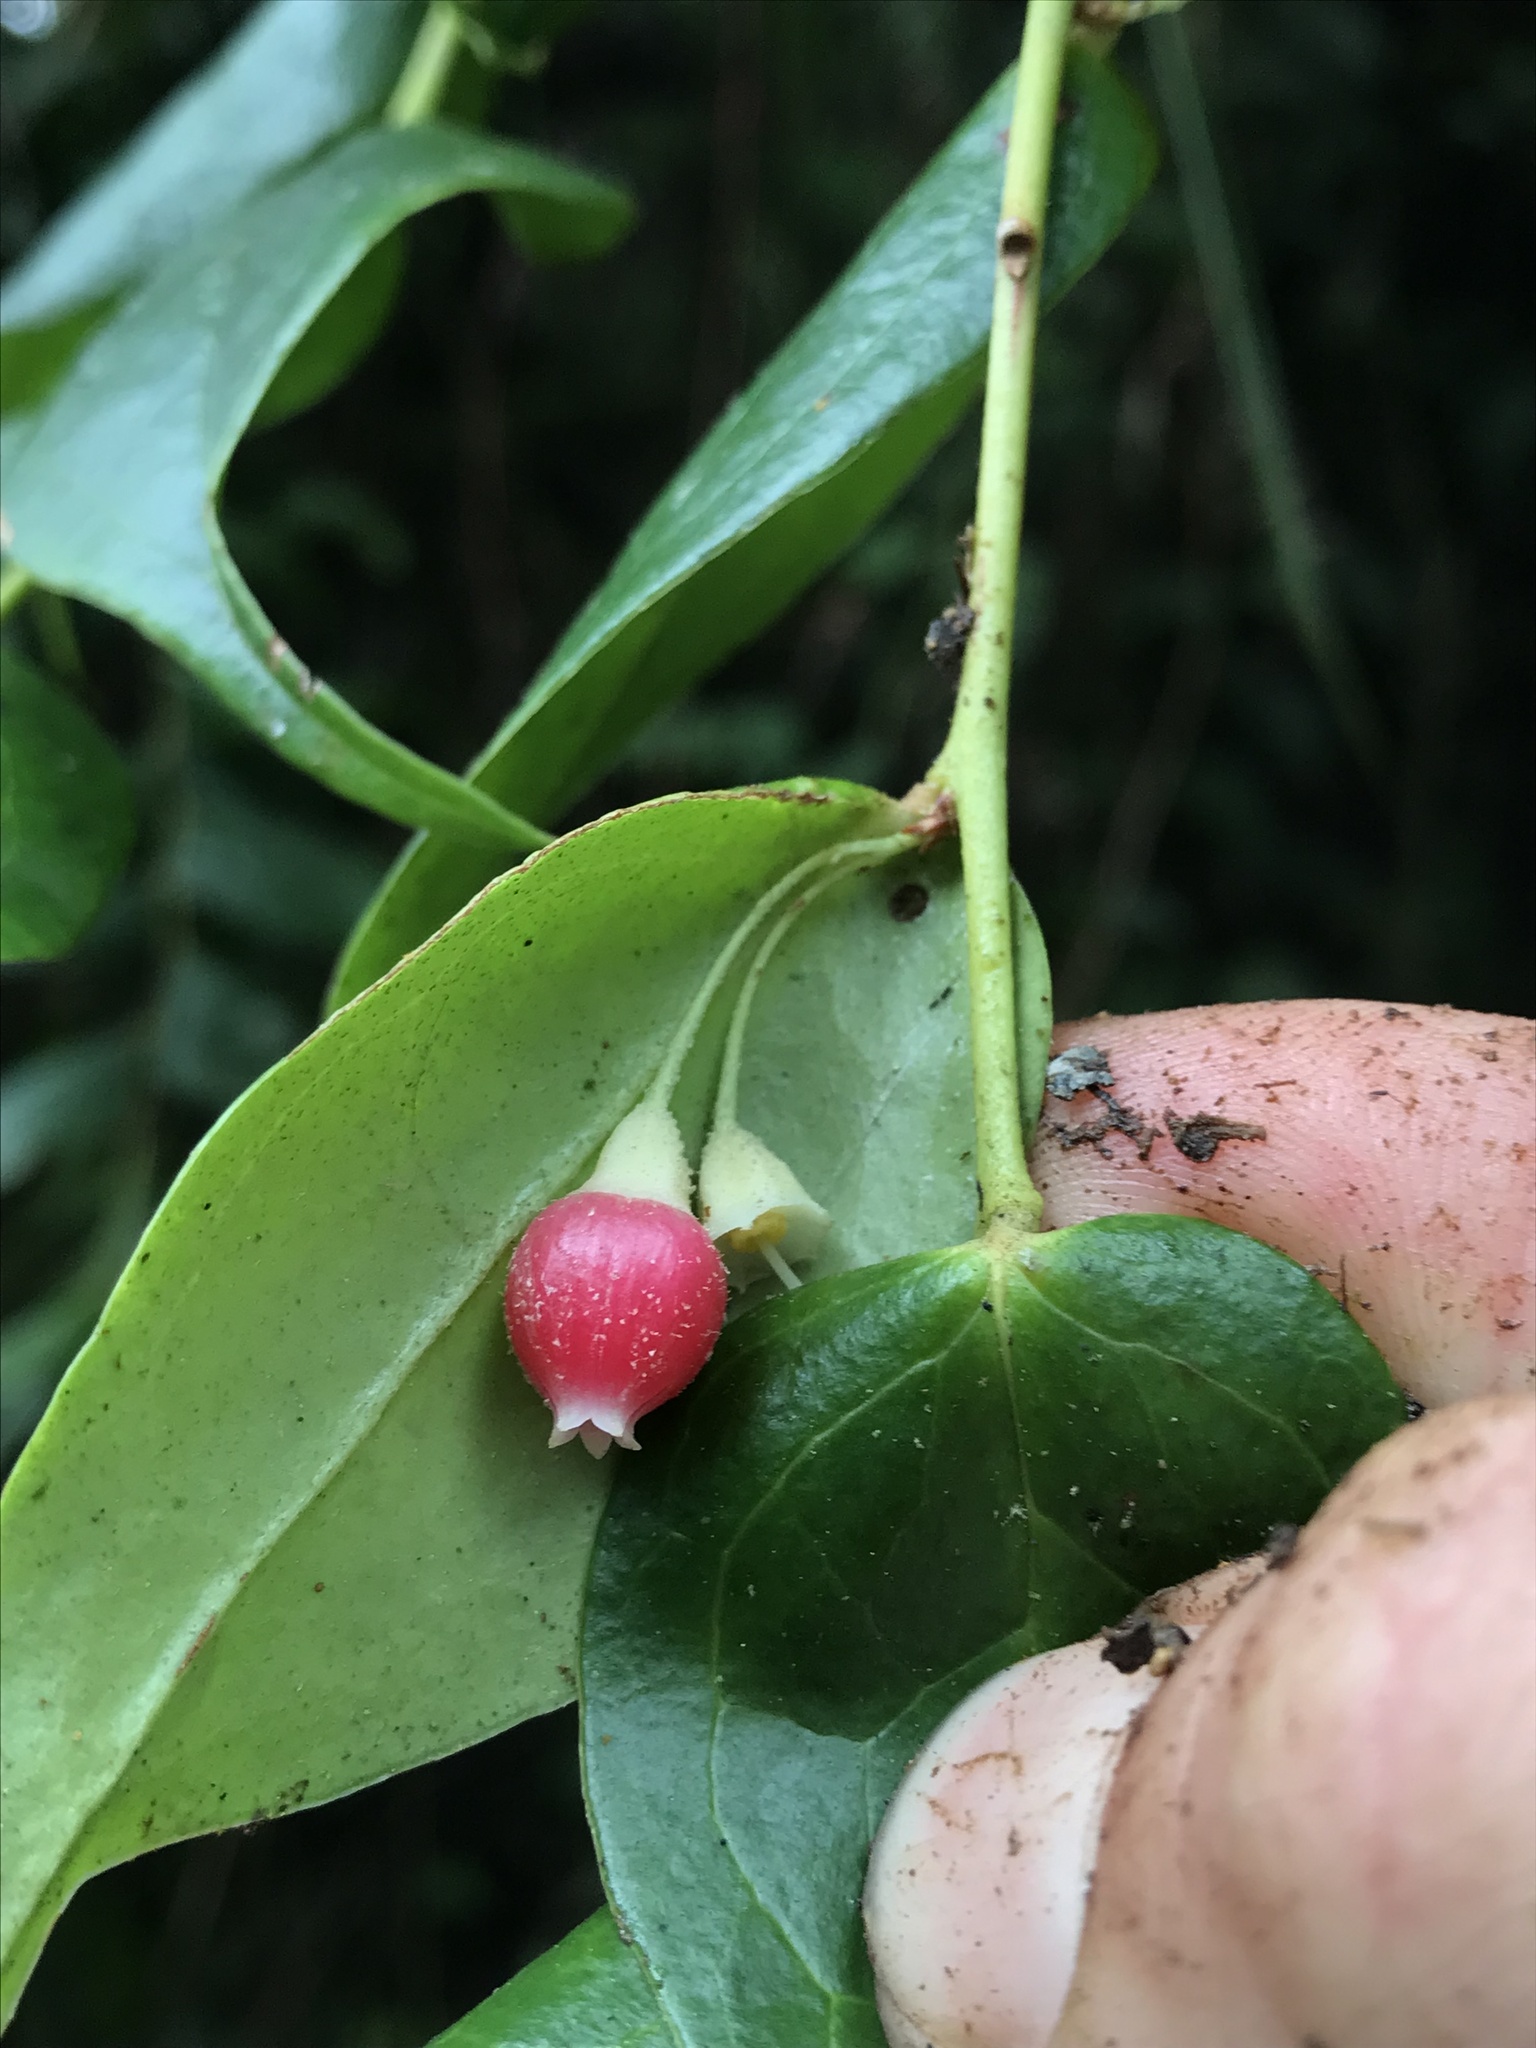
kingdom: Plantae
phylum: Tracheophyta
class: Magnoliopsida
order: Ericales
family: Ericaceae
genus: Themistoclesia
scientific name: Themistoclesia rostrata
